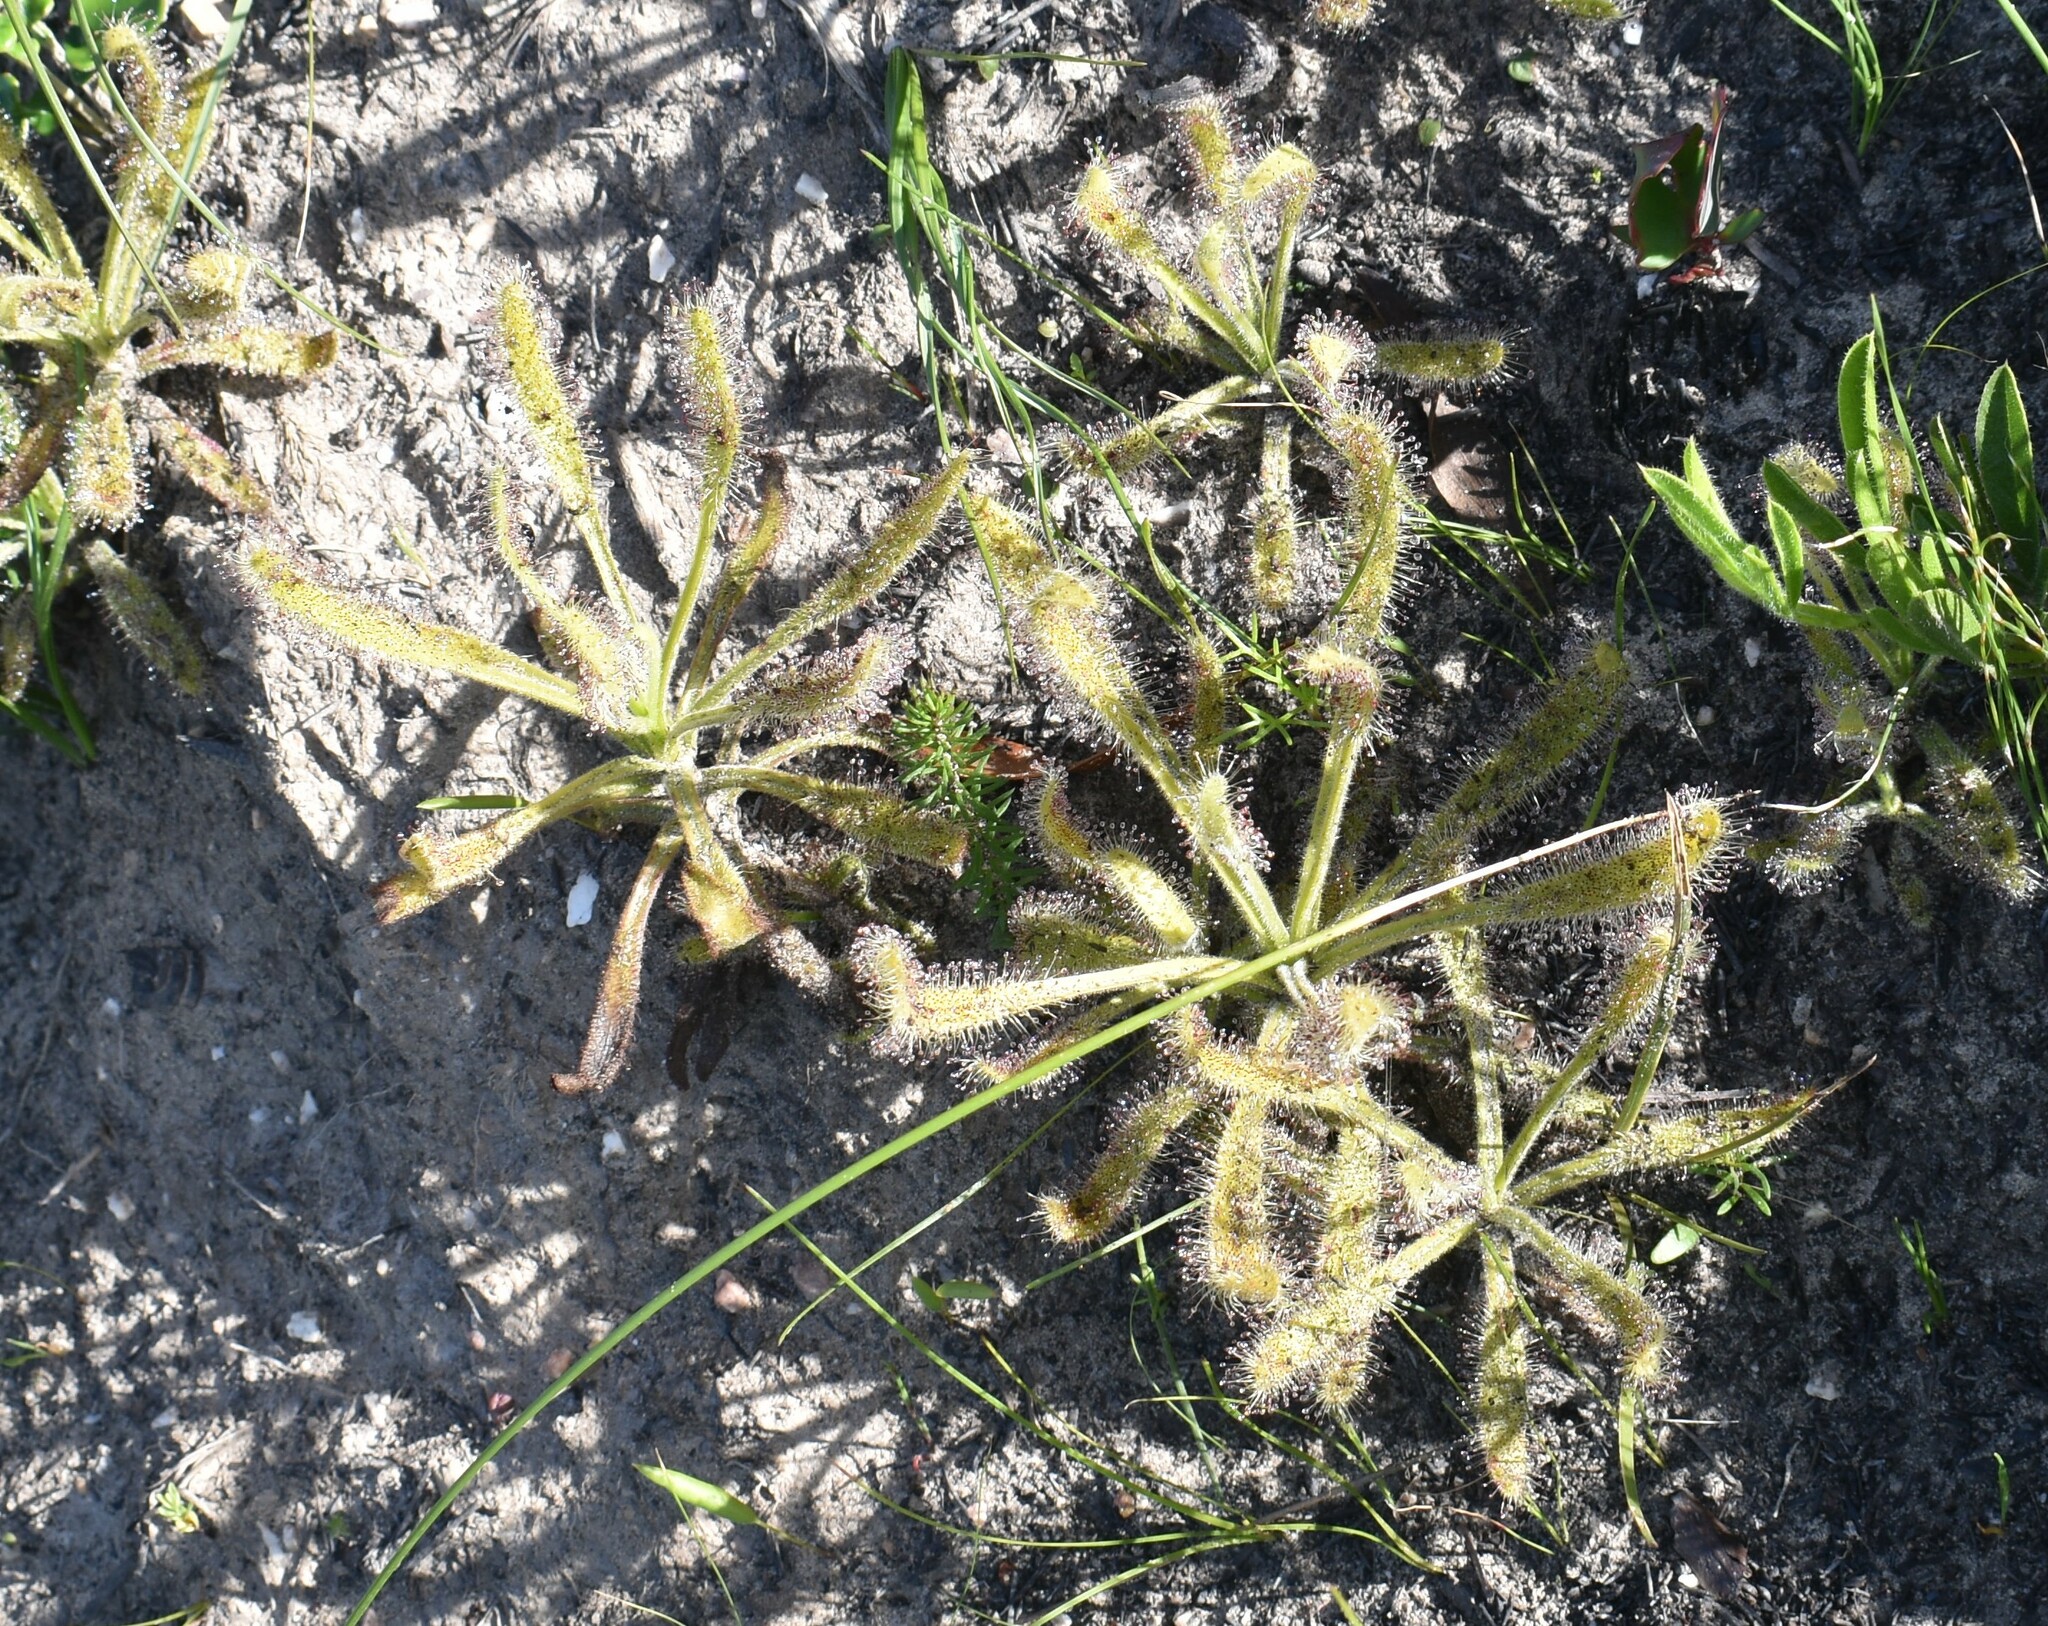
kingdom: Plantae
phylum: Tracheophyta
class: Magnoliopsida
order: Caryophyllales
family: Droseraceae
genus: Drosera
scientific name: Drosera hilaris
